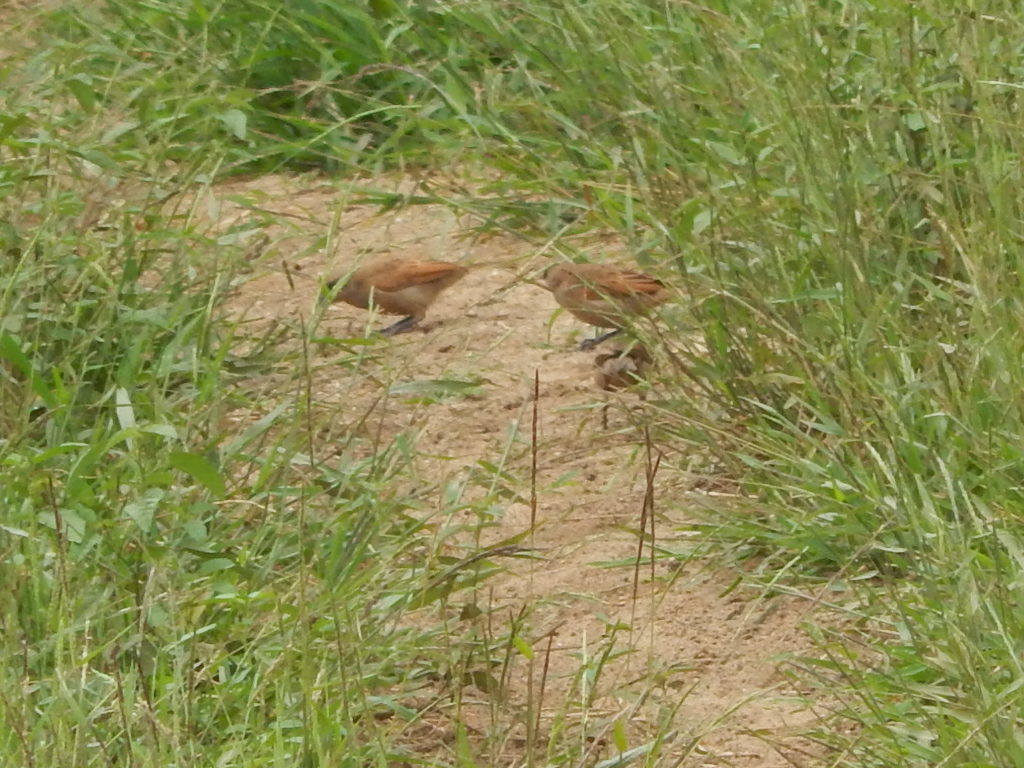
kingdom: Animalia
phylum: Chordata
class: Aves
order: Passeriformes
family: Icteridae
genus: Agelaioides
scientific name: Agelaioides badius
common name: Baywing
